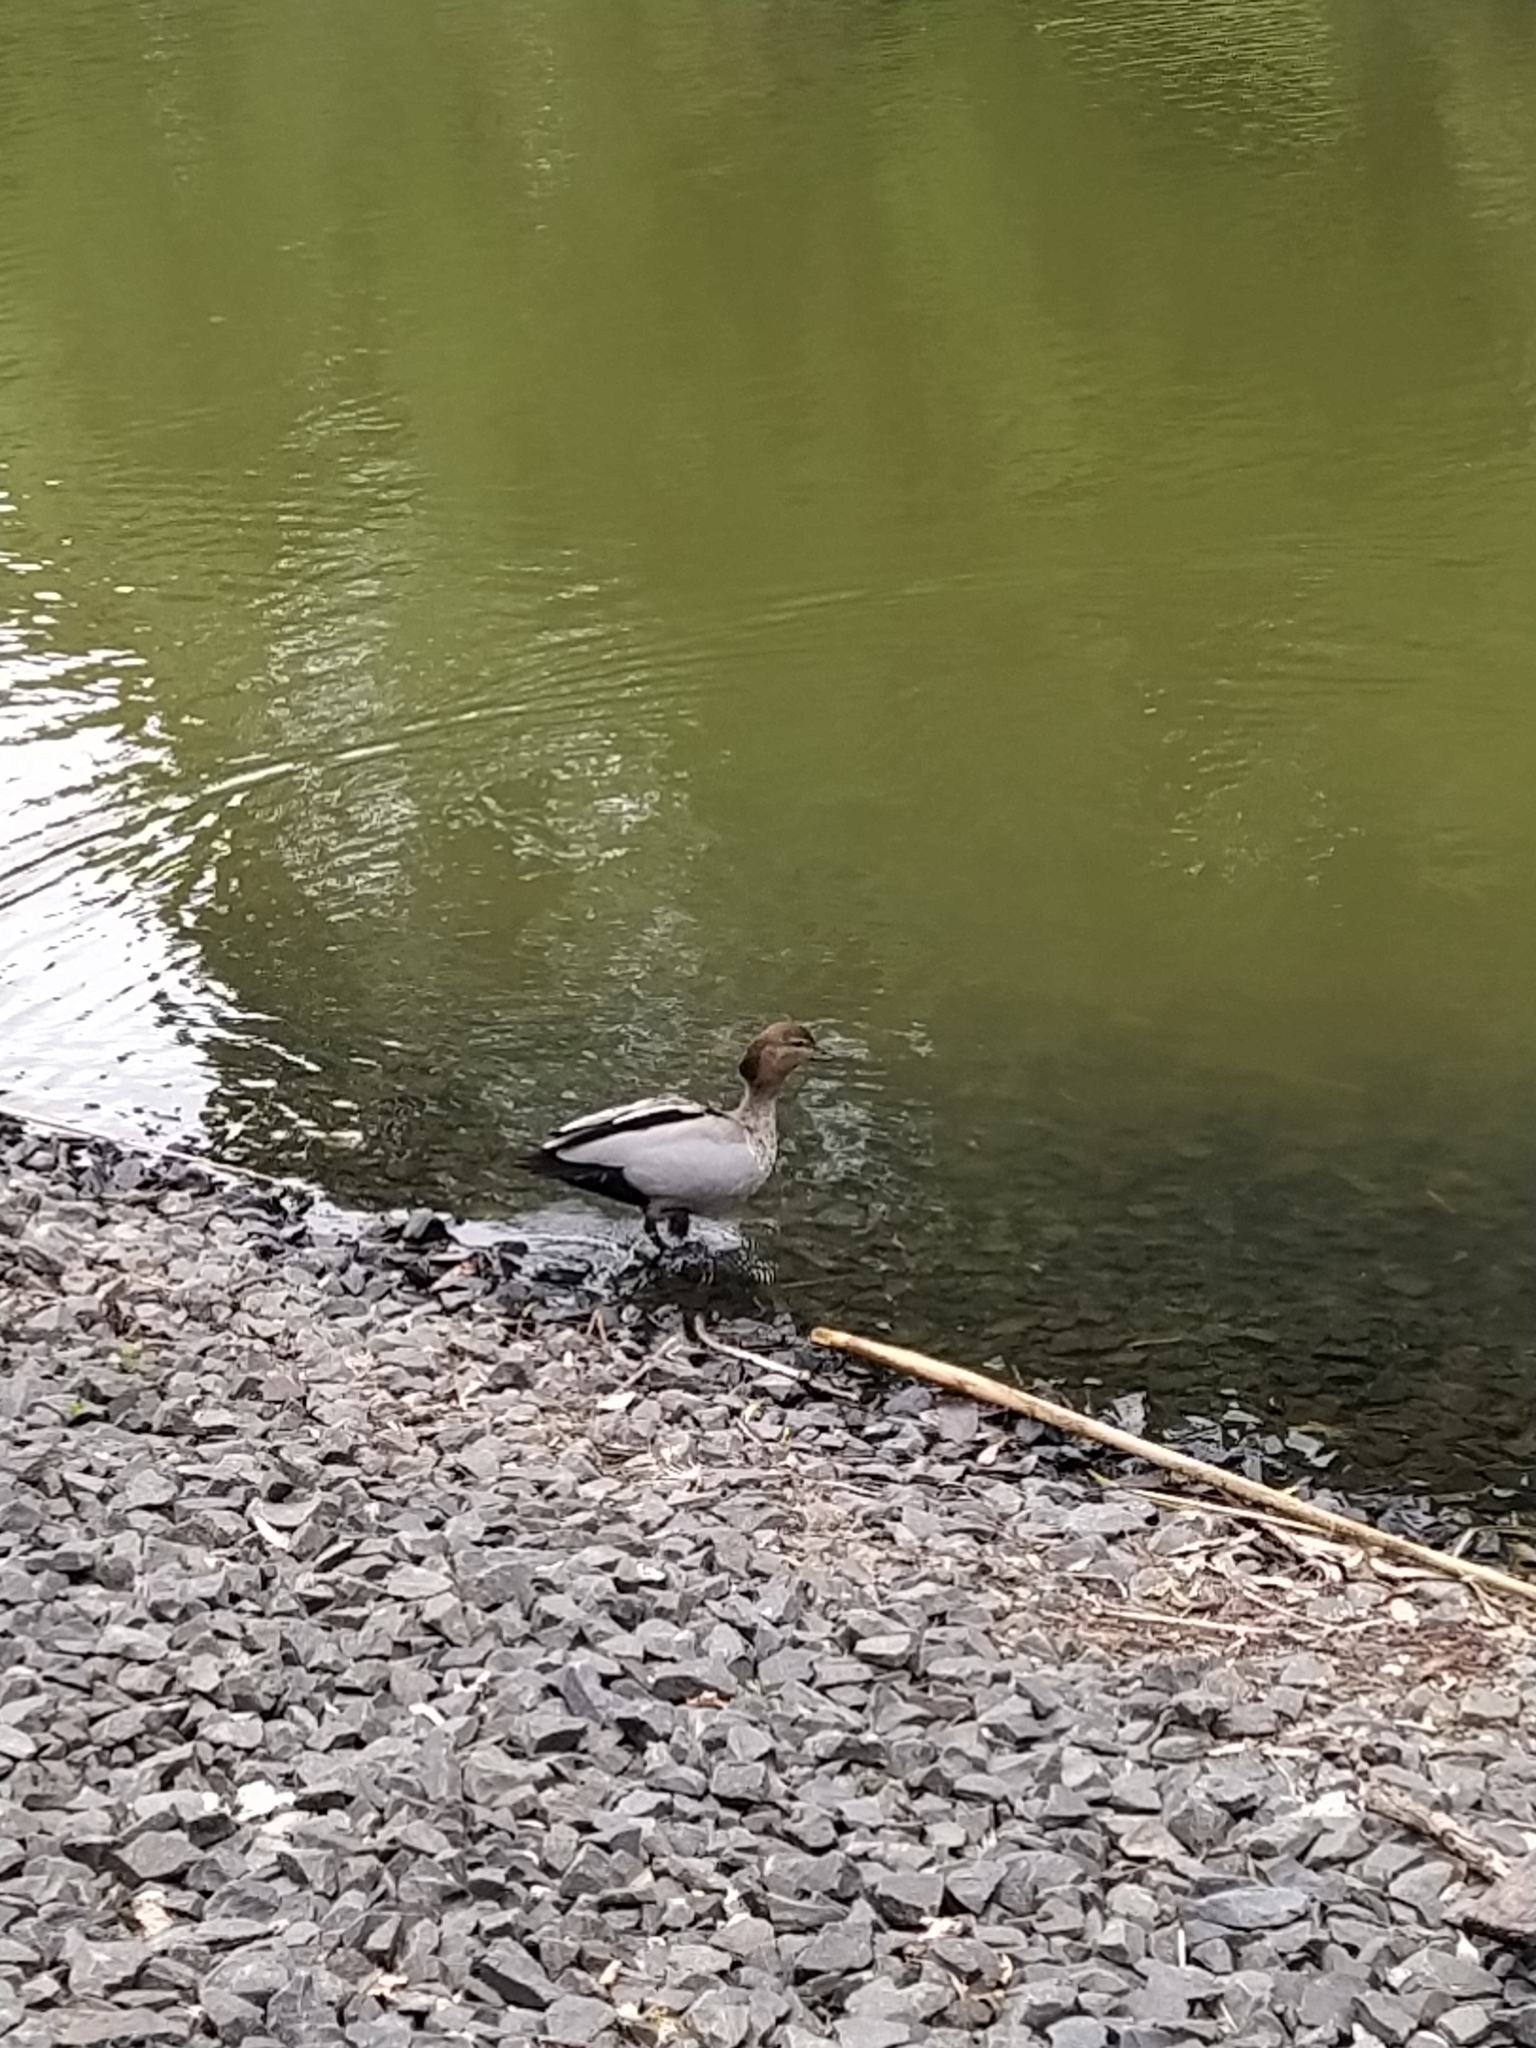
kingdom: Animalia
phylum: Chordata
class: Aves
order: Anseriformes
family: Anatidae
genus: Chenonetta
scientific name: Chenonetta jubata
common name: Maned duck
